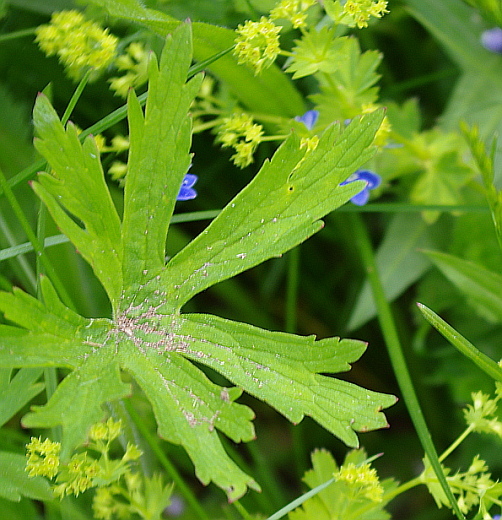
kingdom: Plantae
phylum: Tracheophyta
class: Magnoliopsida
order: Geraniales
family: Geraniaceae
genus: Geranium
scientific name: Geranium pratense
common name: Meadow crane's-bill
